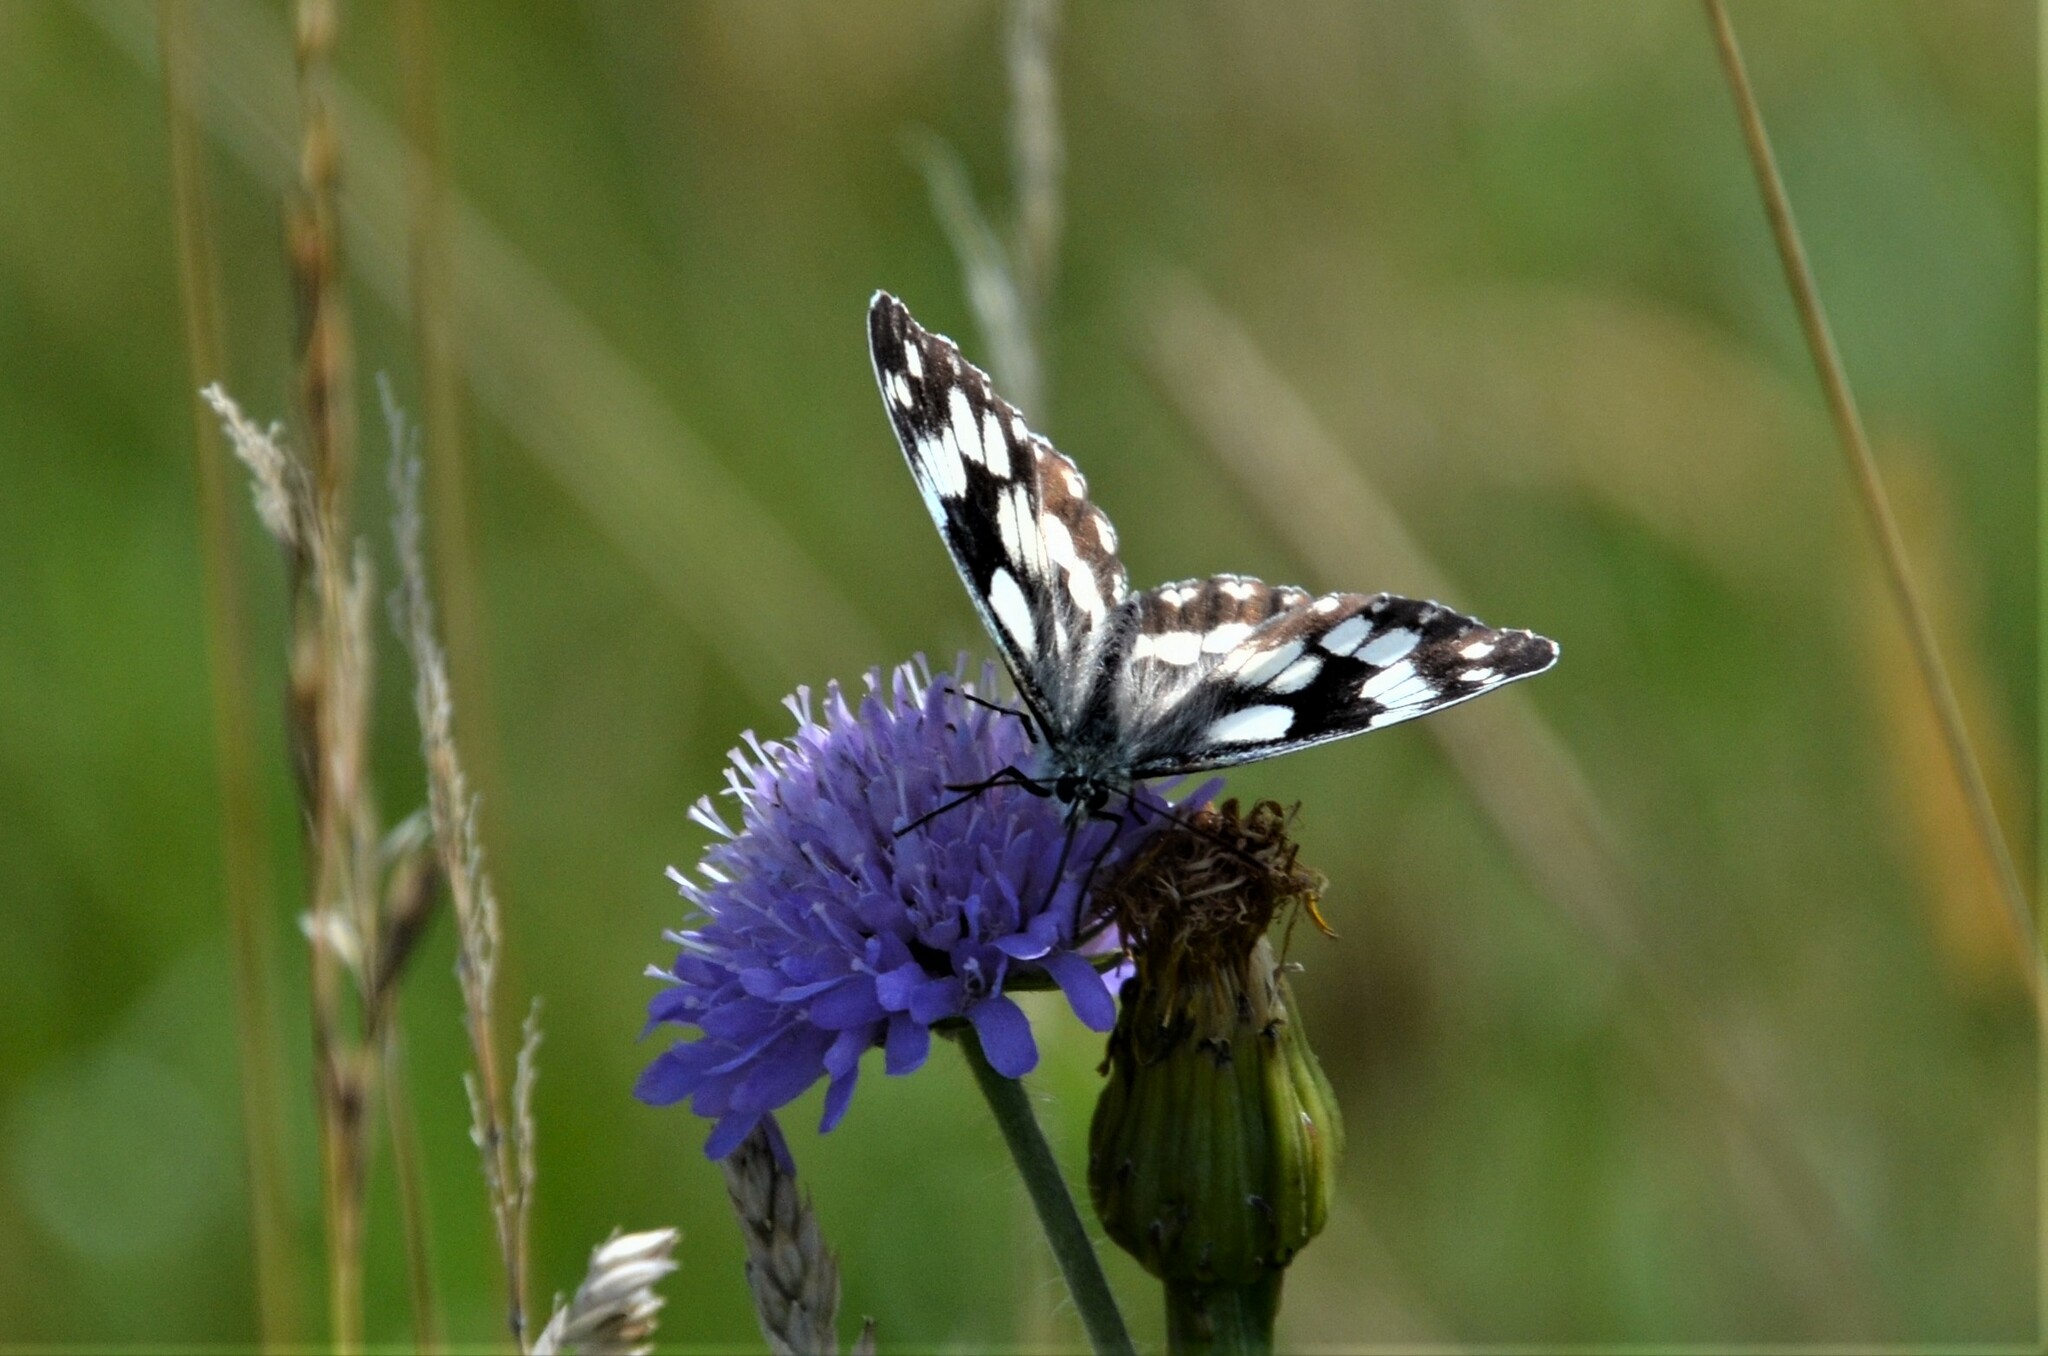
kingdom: Animalia
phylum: Arthropoda
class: Insecta
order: Lepidoptera
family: Nymphalidae
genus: Melanargia
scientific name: Melanargia galathea
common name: Marbled white
